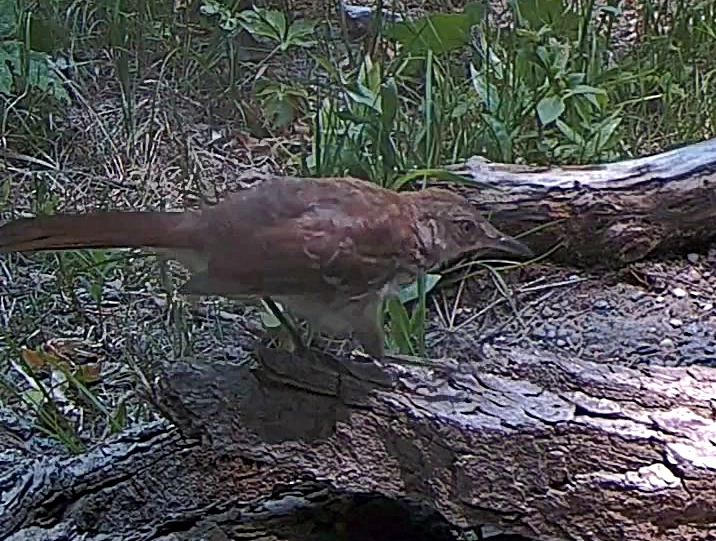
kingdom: Animalia
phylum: Chordata
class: Aves
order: Passeriformes
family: Mimidae
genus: Toxostoma
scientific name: Toxostoma rufum
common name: Brown thrasher
